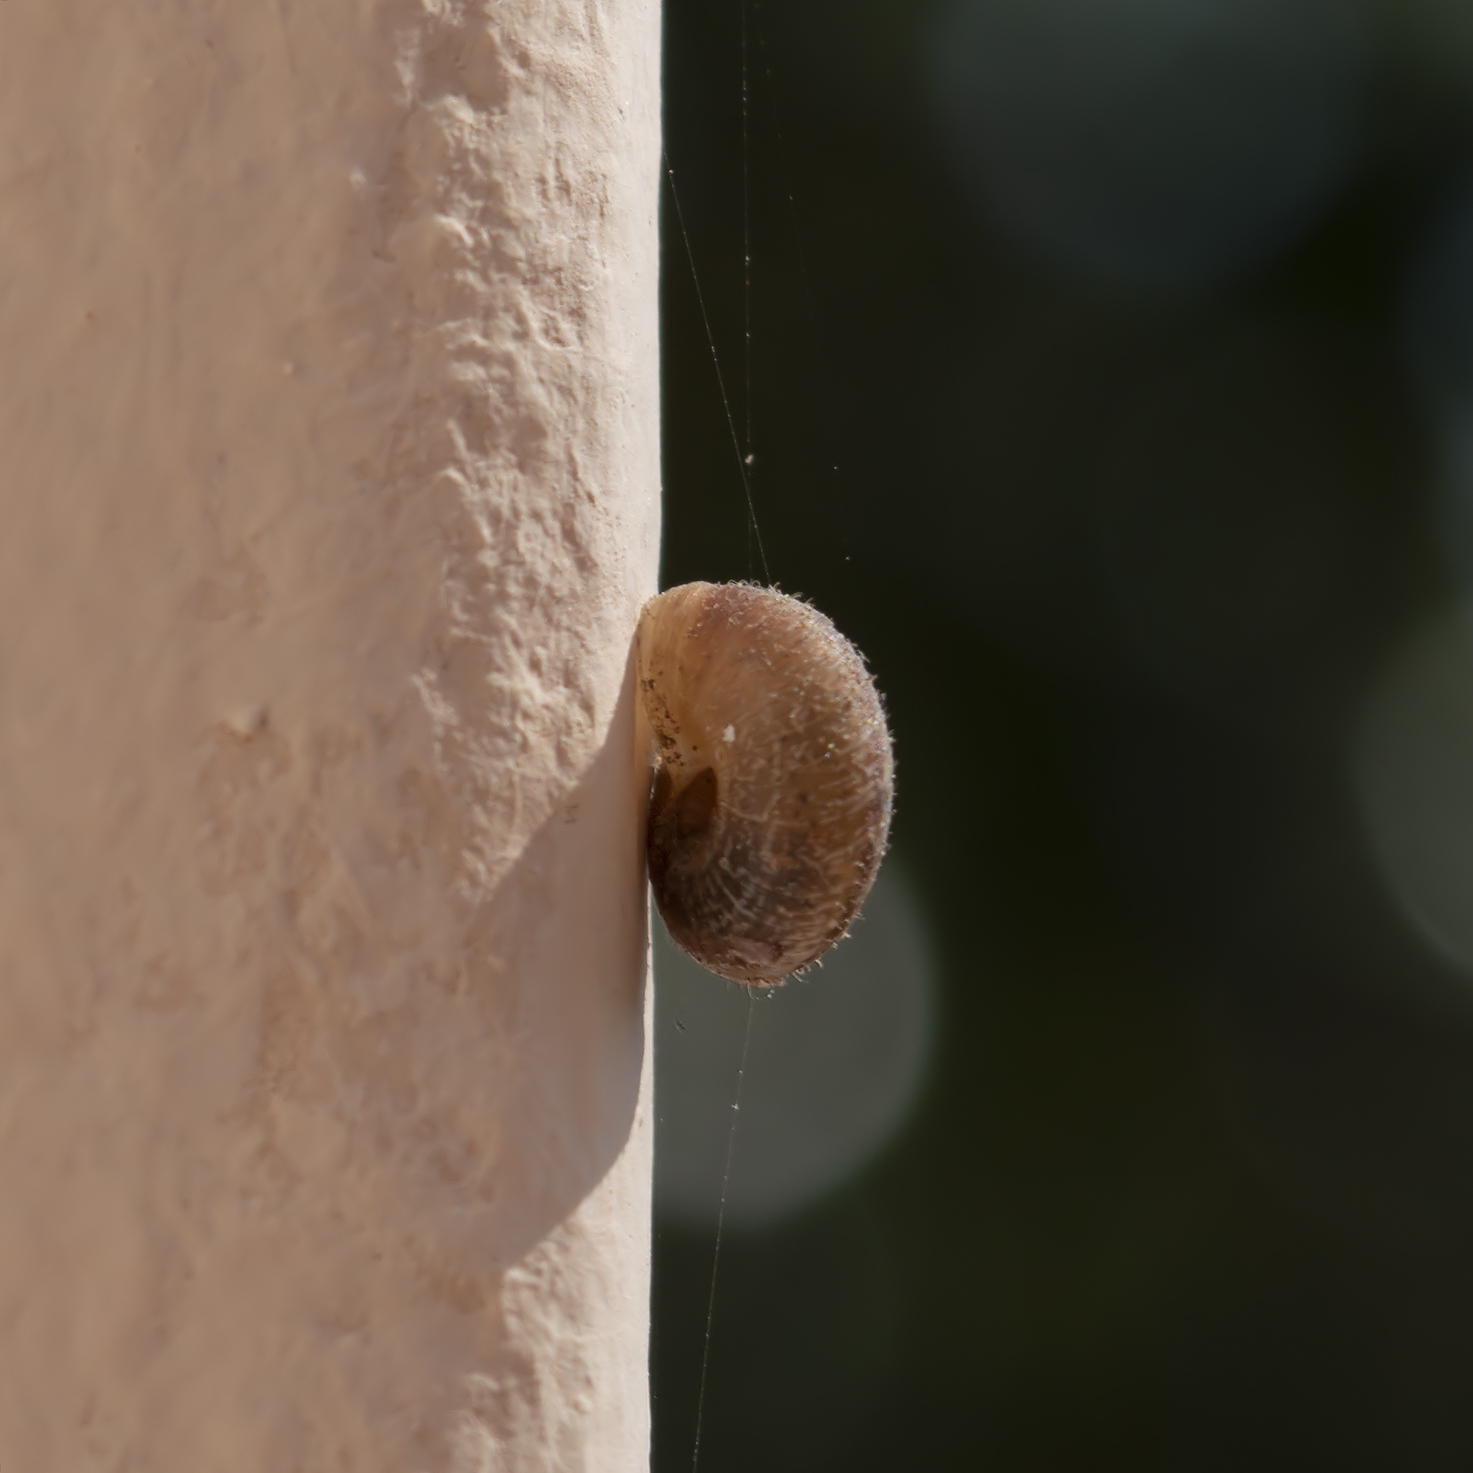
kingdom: Animalia
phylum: Mollusca
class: Gastropoda
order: Stylommatophora
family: Geomitridae
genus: Xerotricha
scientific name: Xerotricha conspurcata
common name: Snail
